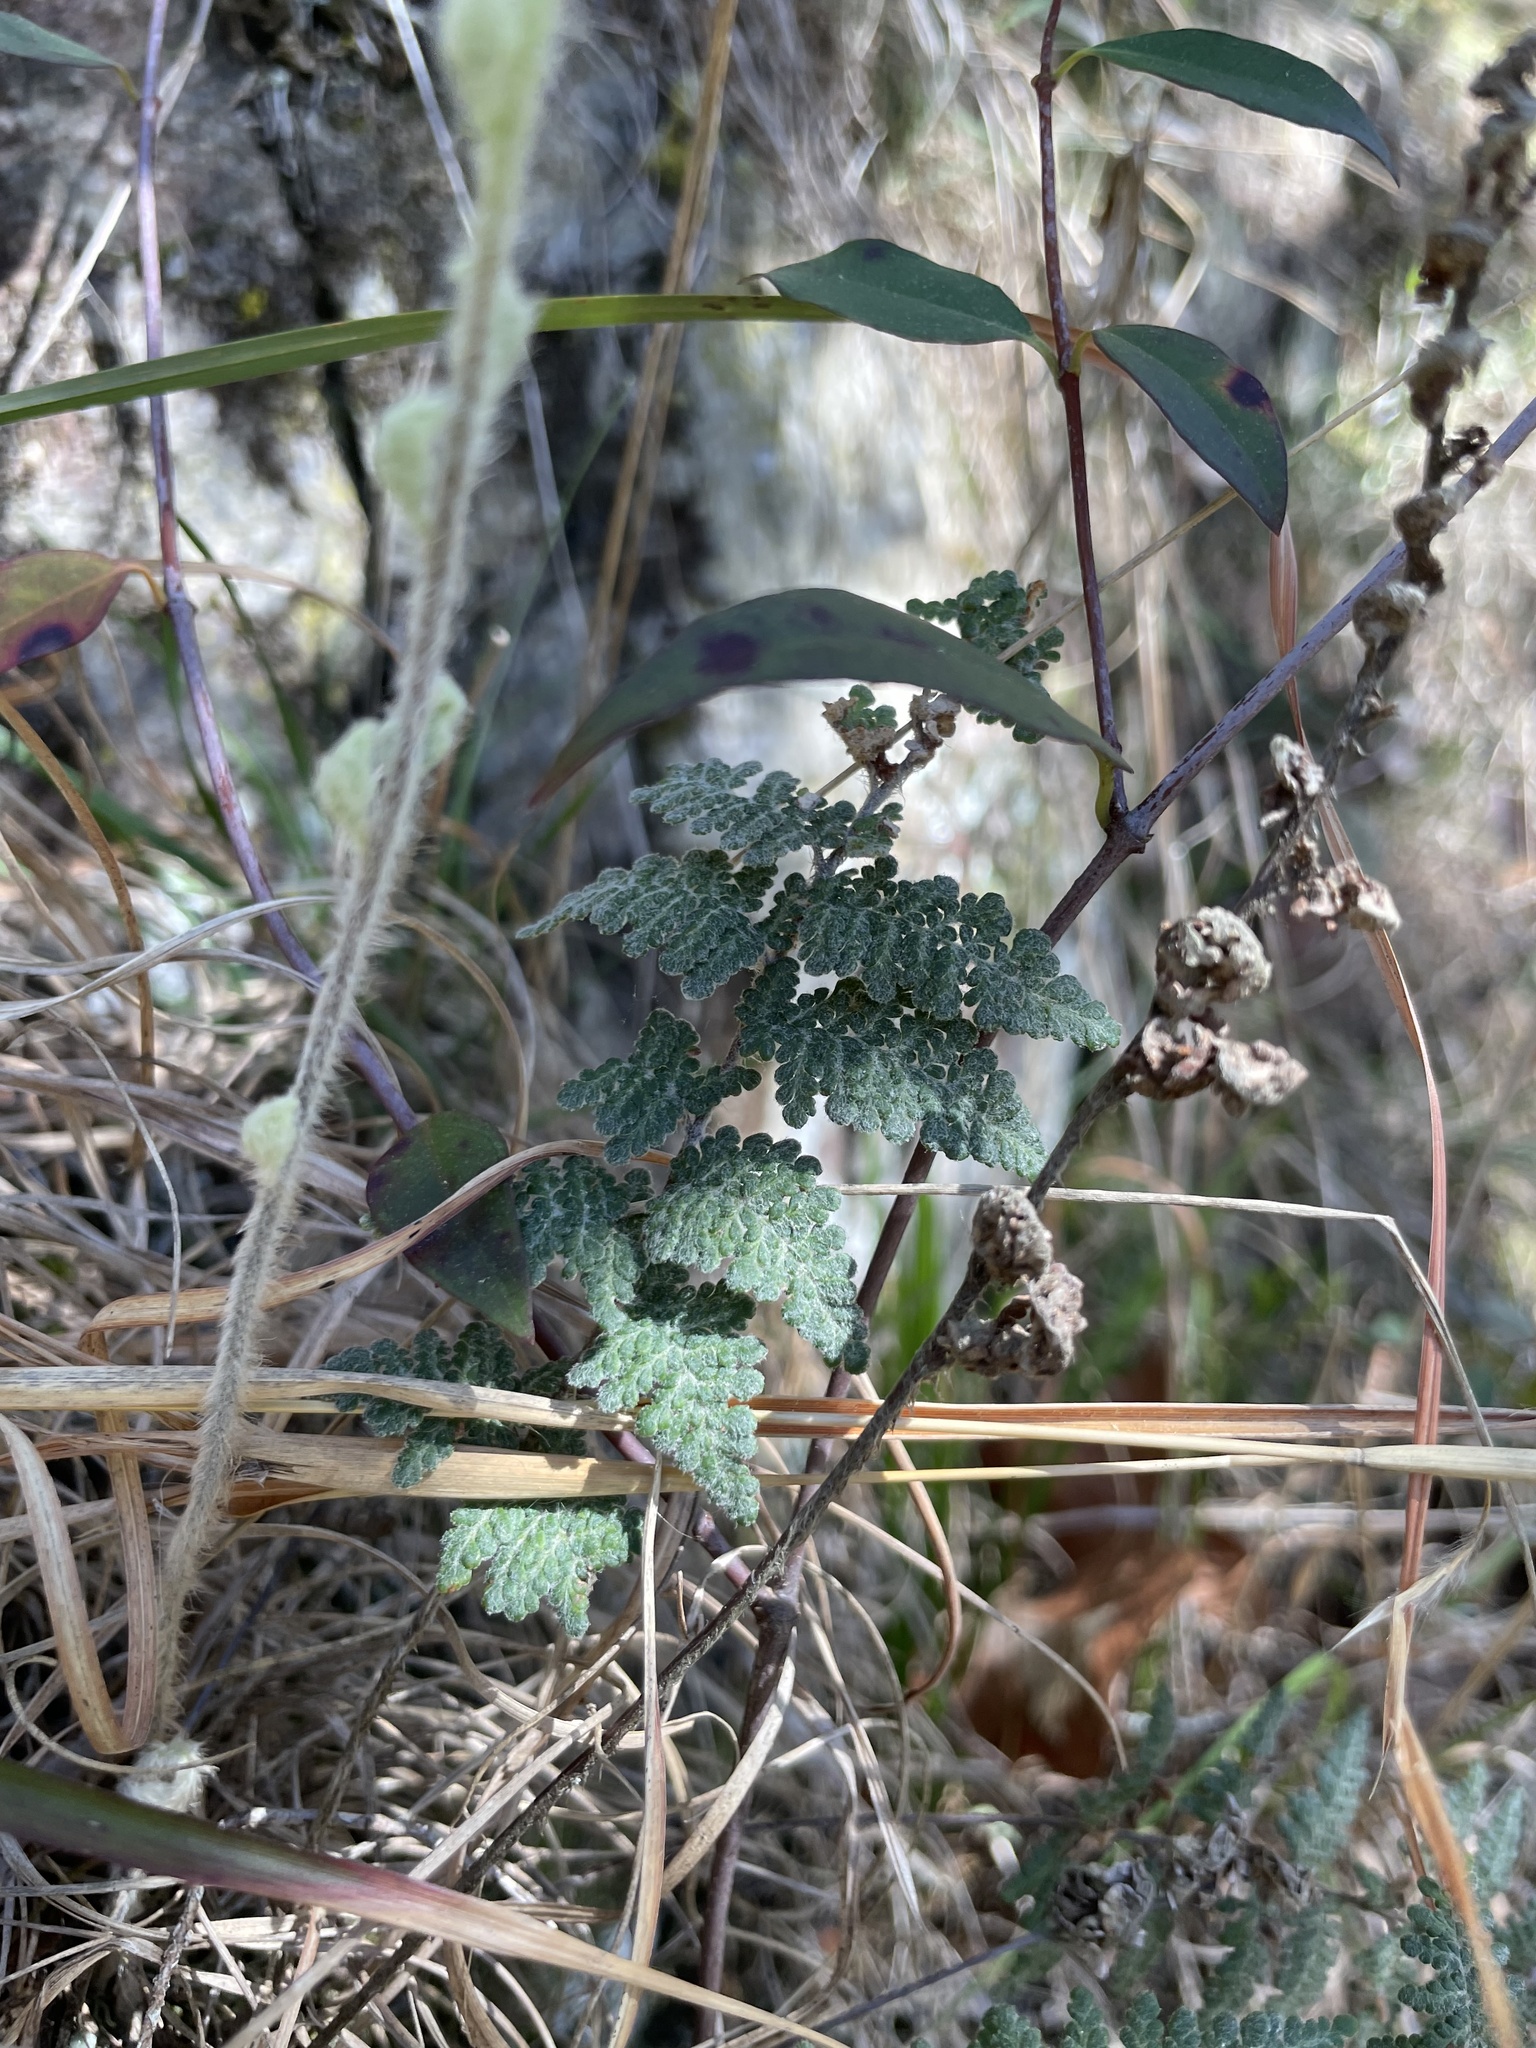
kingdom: Plantae
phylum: Tracheophyta
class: Polypodiopsida
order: Polypodiales
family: Pteridaceae
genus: Myriopteris
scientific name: Myriopteris tomentosa
